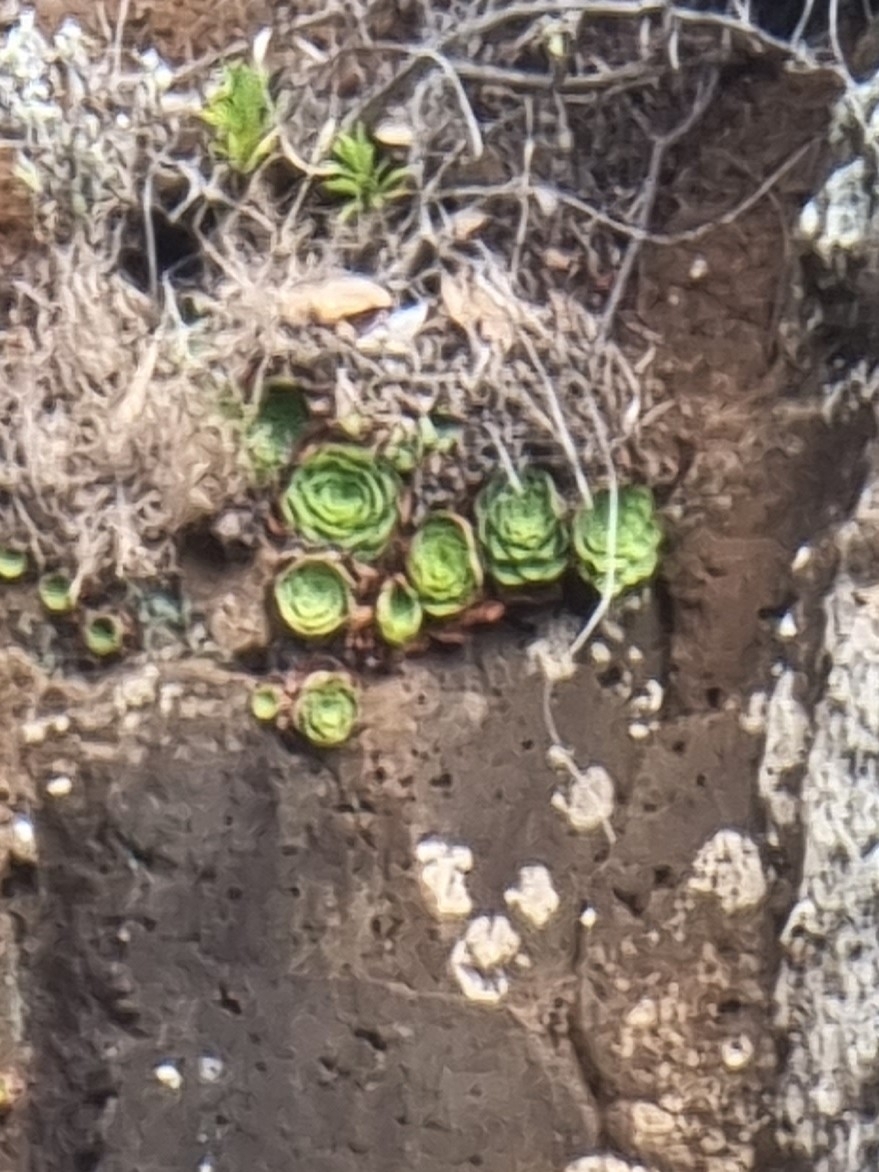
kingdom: Plantae
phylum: Tracheophyta
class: Magnoliopsida
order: Saxifragales
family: Crassulaceae
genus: Aeonium
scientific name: Aeonium glandulosum
